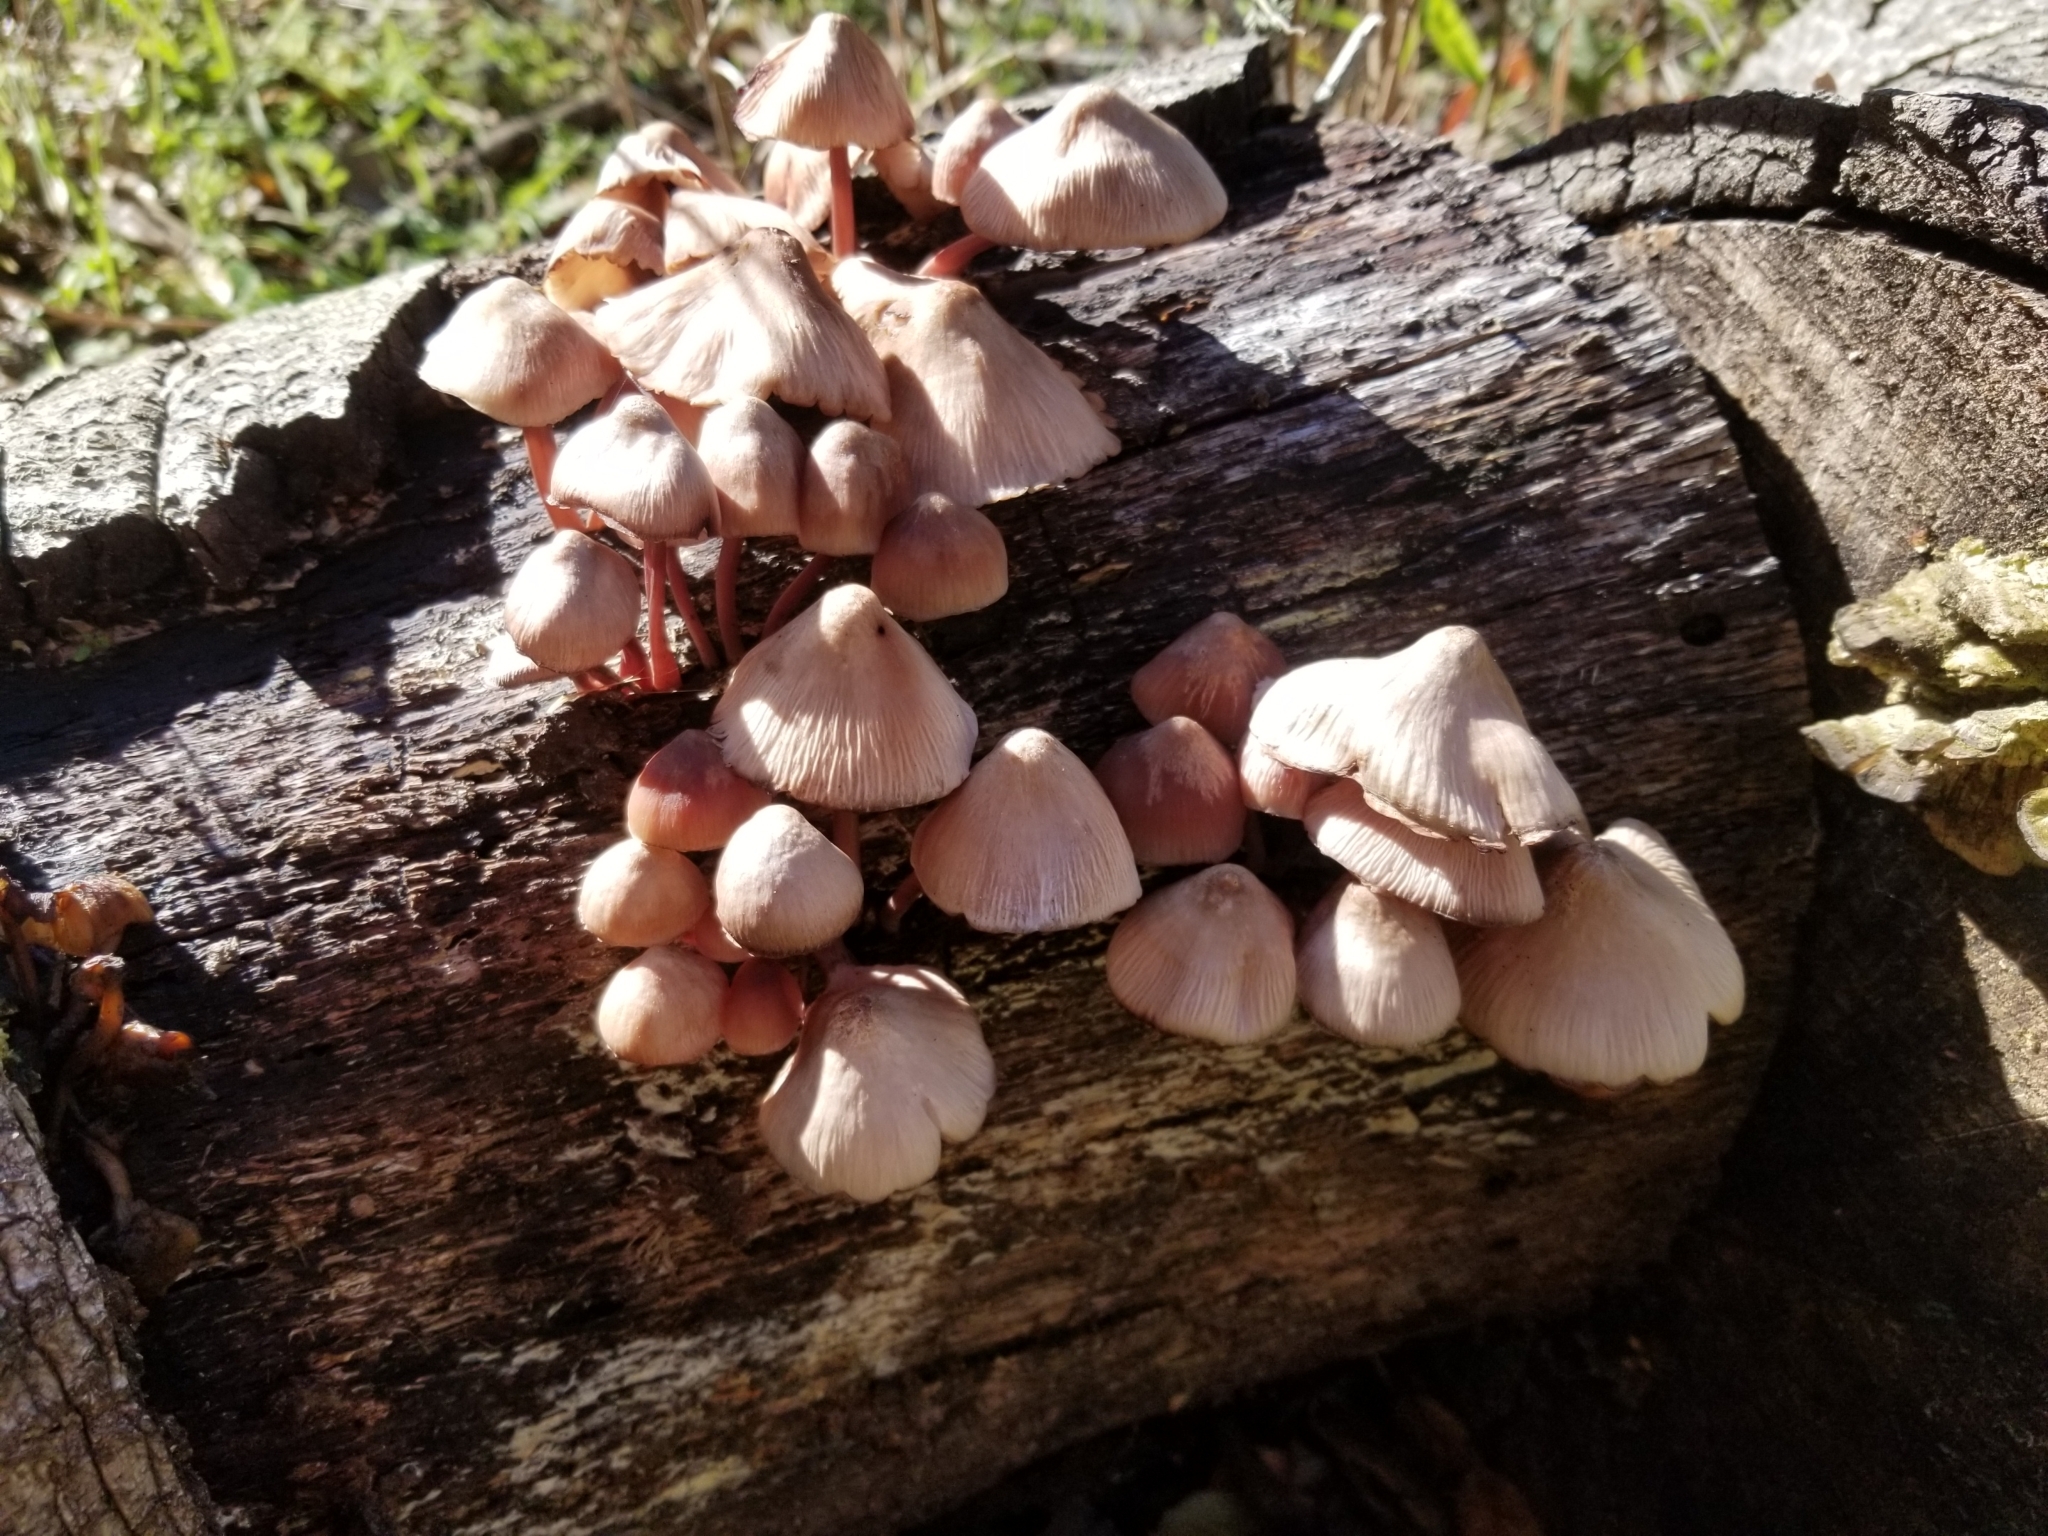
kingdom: Fungi
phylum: Basidiomycota
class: Agaricomycetes
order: Agaricales
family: Mycenaceae
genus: Mycena
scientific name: Mycena haematopus
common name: Burgundydrop bonnet
